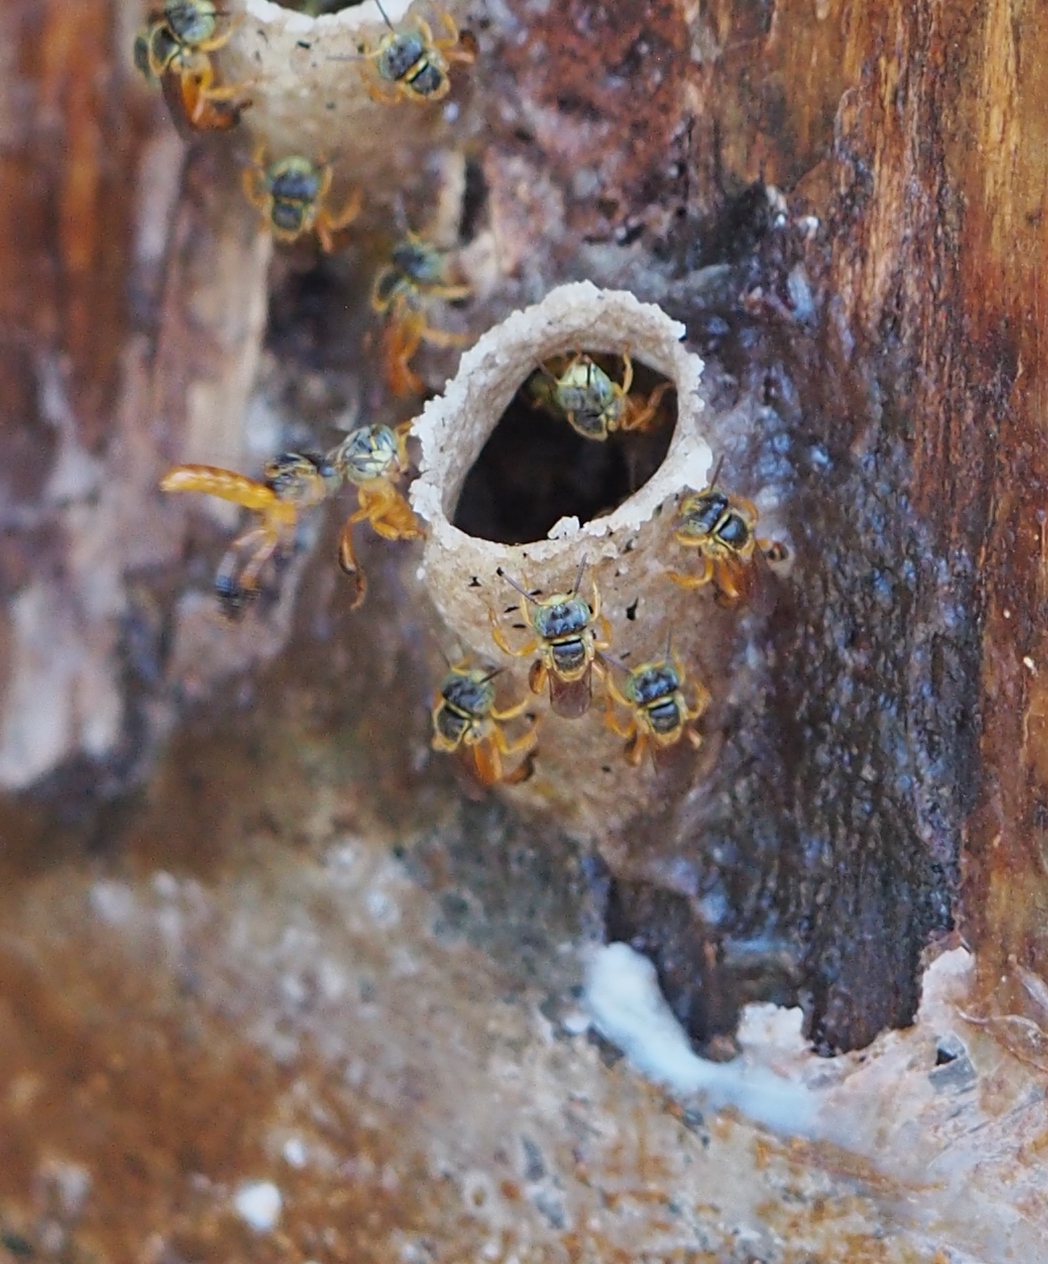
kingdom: Animalia
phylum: Arthropoda
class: Insecta
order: Hymenoptera
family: Apidae
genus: Tetragonisca
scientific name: Tetragonisca angustula
